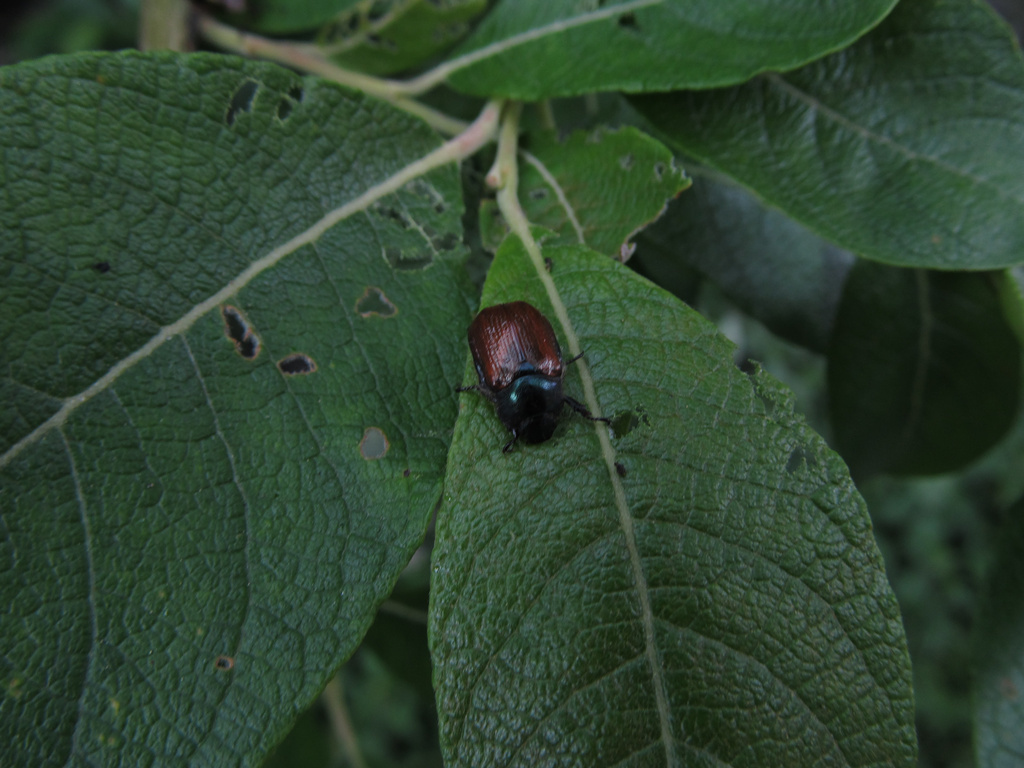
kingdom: Animalia
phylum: Arthropoda
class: Insecta
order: Coleoptera
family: Scarabaeidae
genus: Phyllopertha
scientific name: Phyllopertha horticola
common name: Garden chafer
